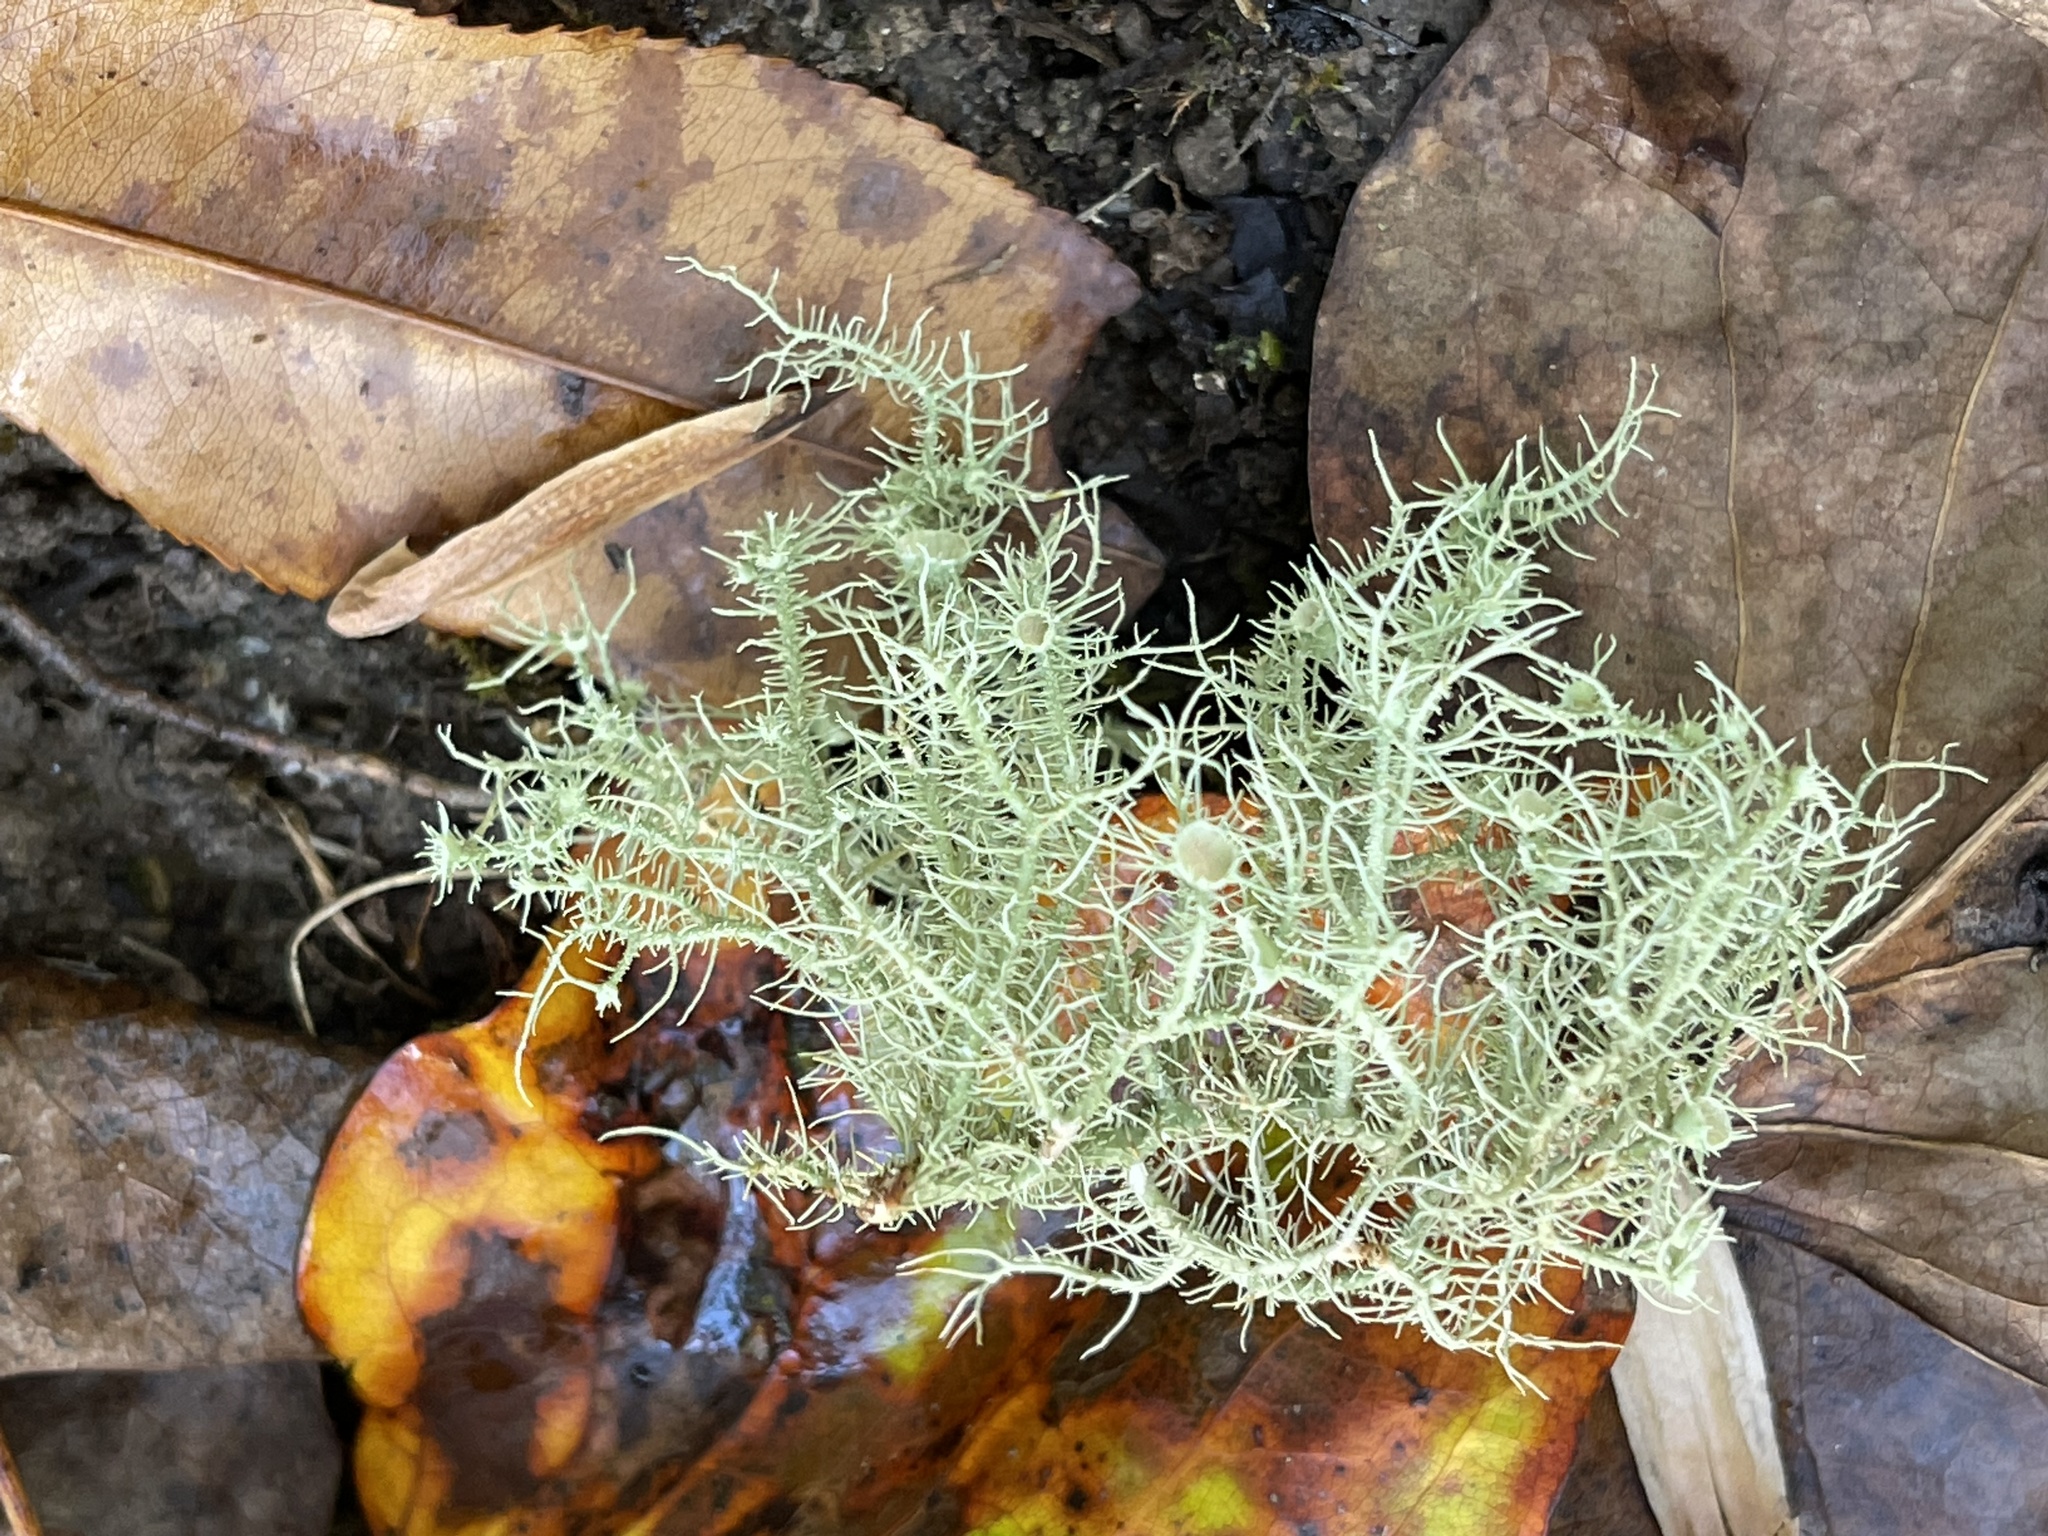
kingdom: Fungi
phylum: Ascomycota
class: Lecanoromycetes
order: Lecanorales
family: Parmeliaceae
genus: Usnea
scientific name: Usnea strigosa
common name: Bushy beard lichen
